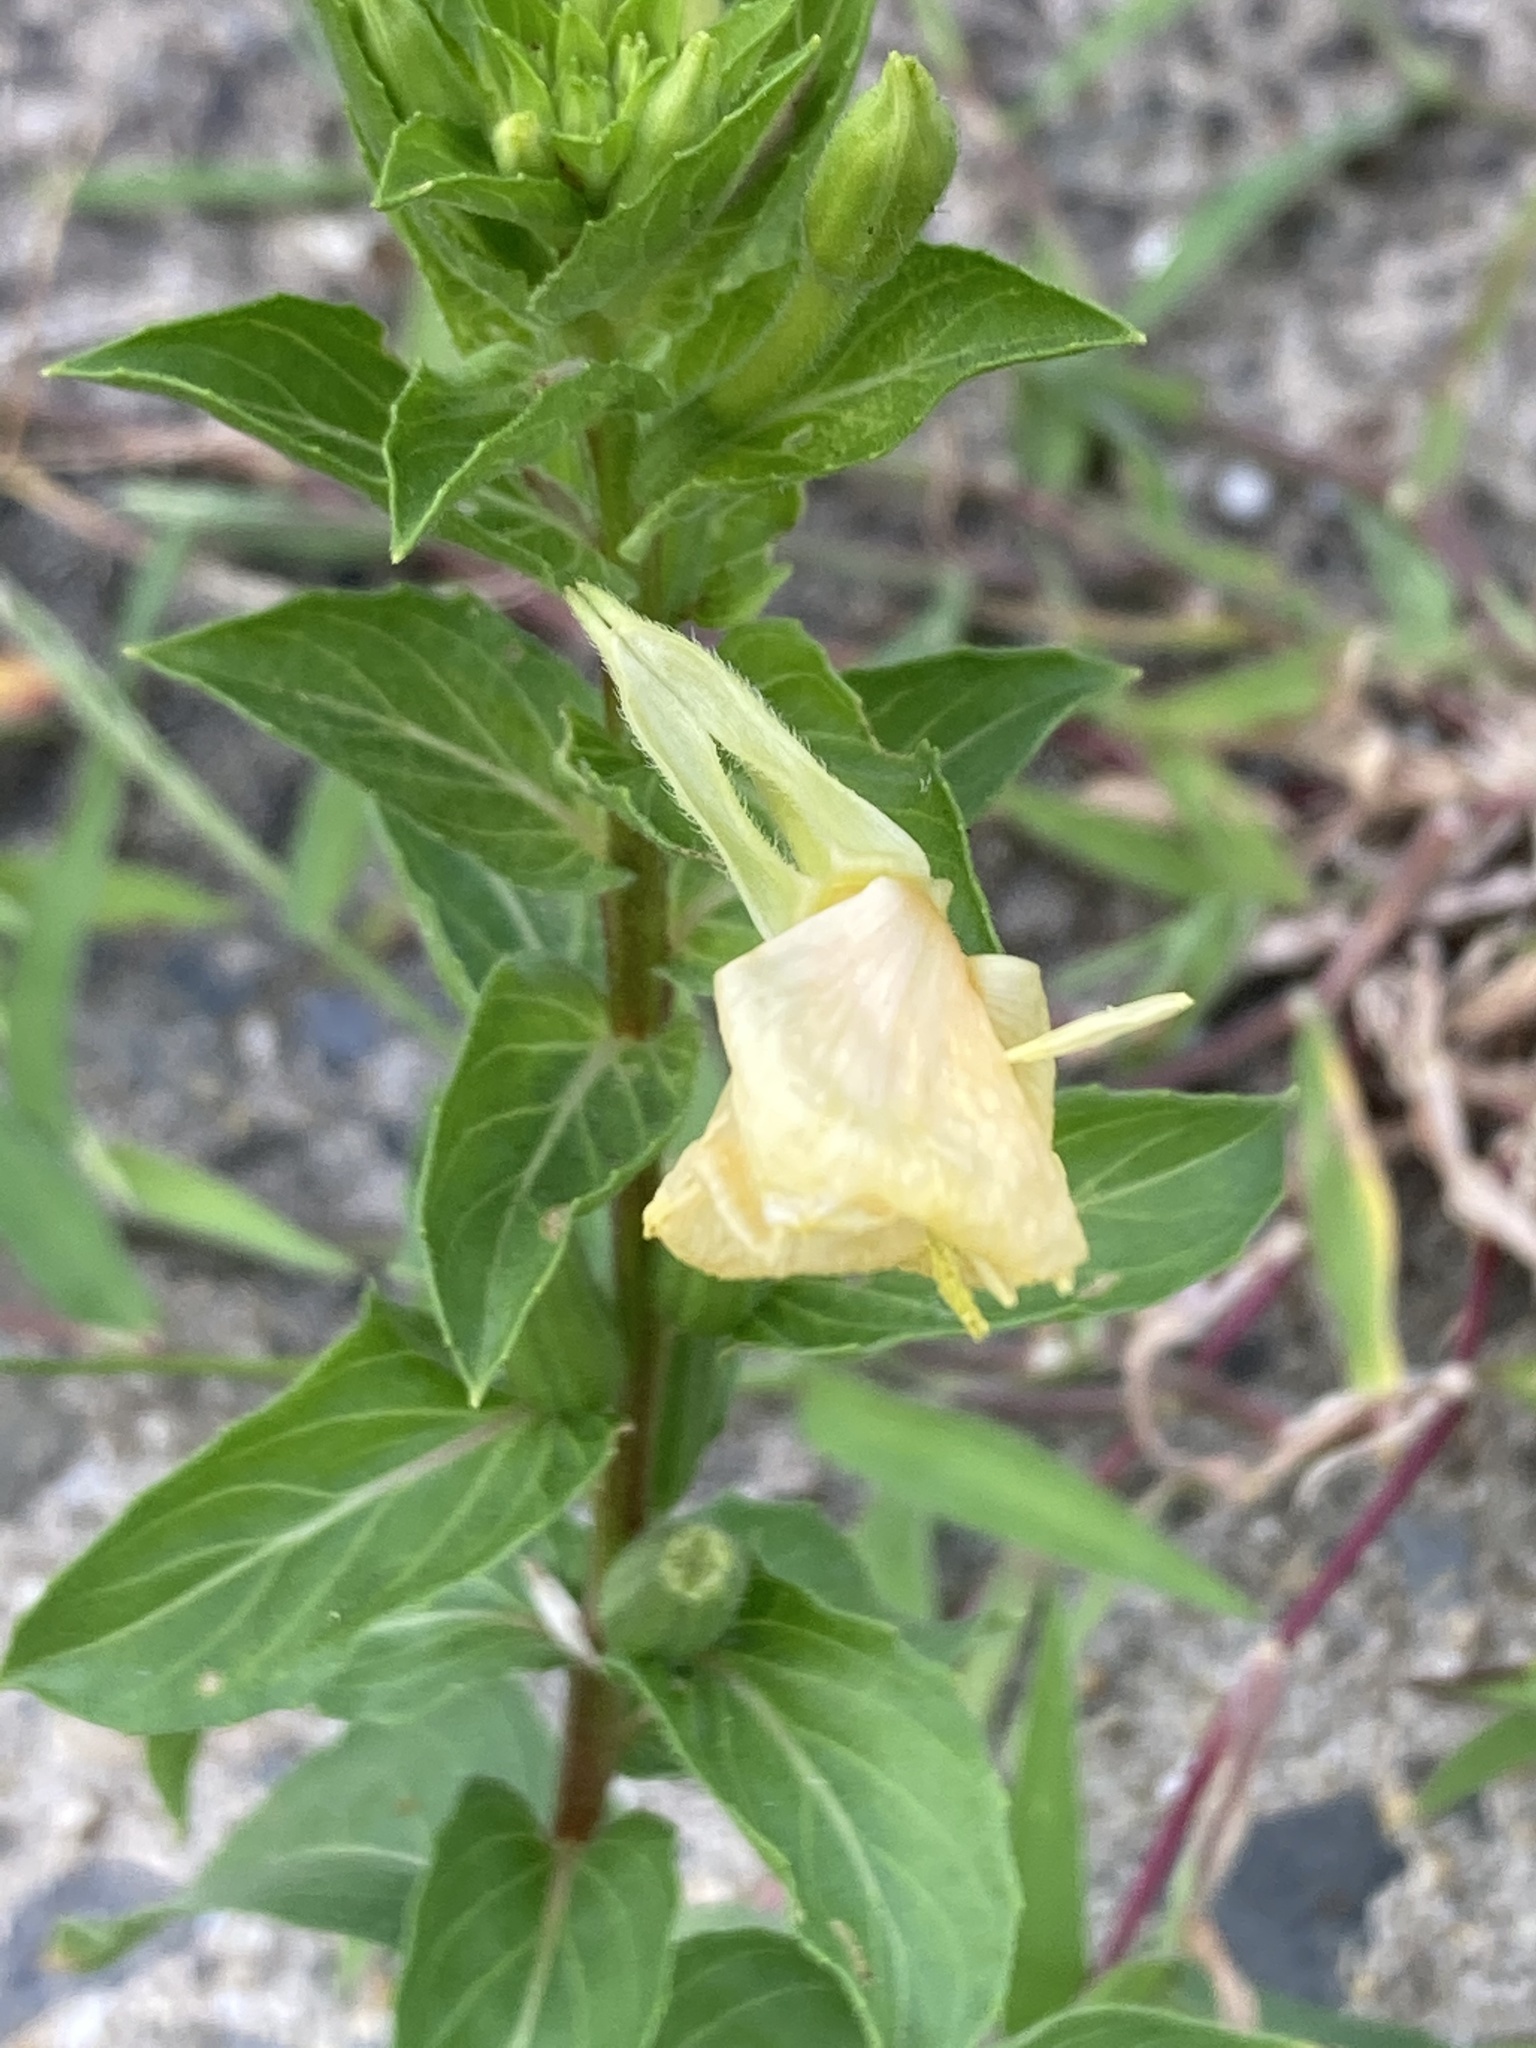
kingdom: Plantae
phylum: Tracheophyta
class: Magnoliopsida
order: Myrtales
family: Onagraceae
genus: Oenothera
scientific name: Oenothera biennis
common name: Common evening-primrose
